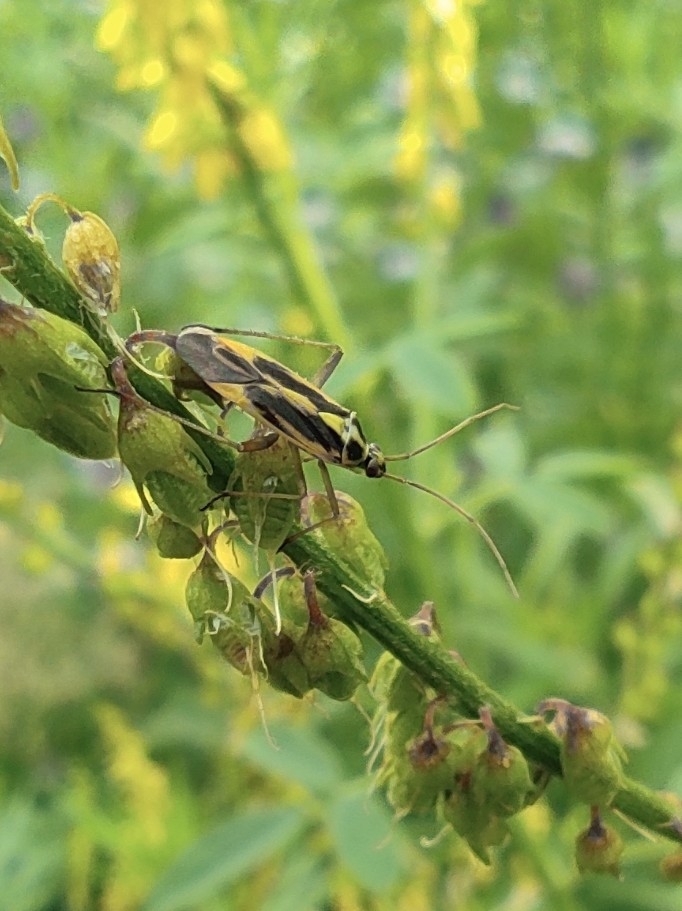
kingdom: Animalia
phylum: Arthropoda
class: Insecta
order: Hemiptera
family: Miridae
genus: Stenotus
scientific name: Stenotus binotatus
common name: Plant bug
